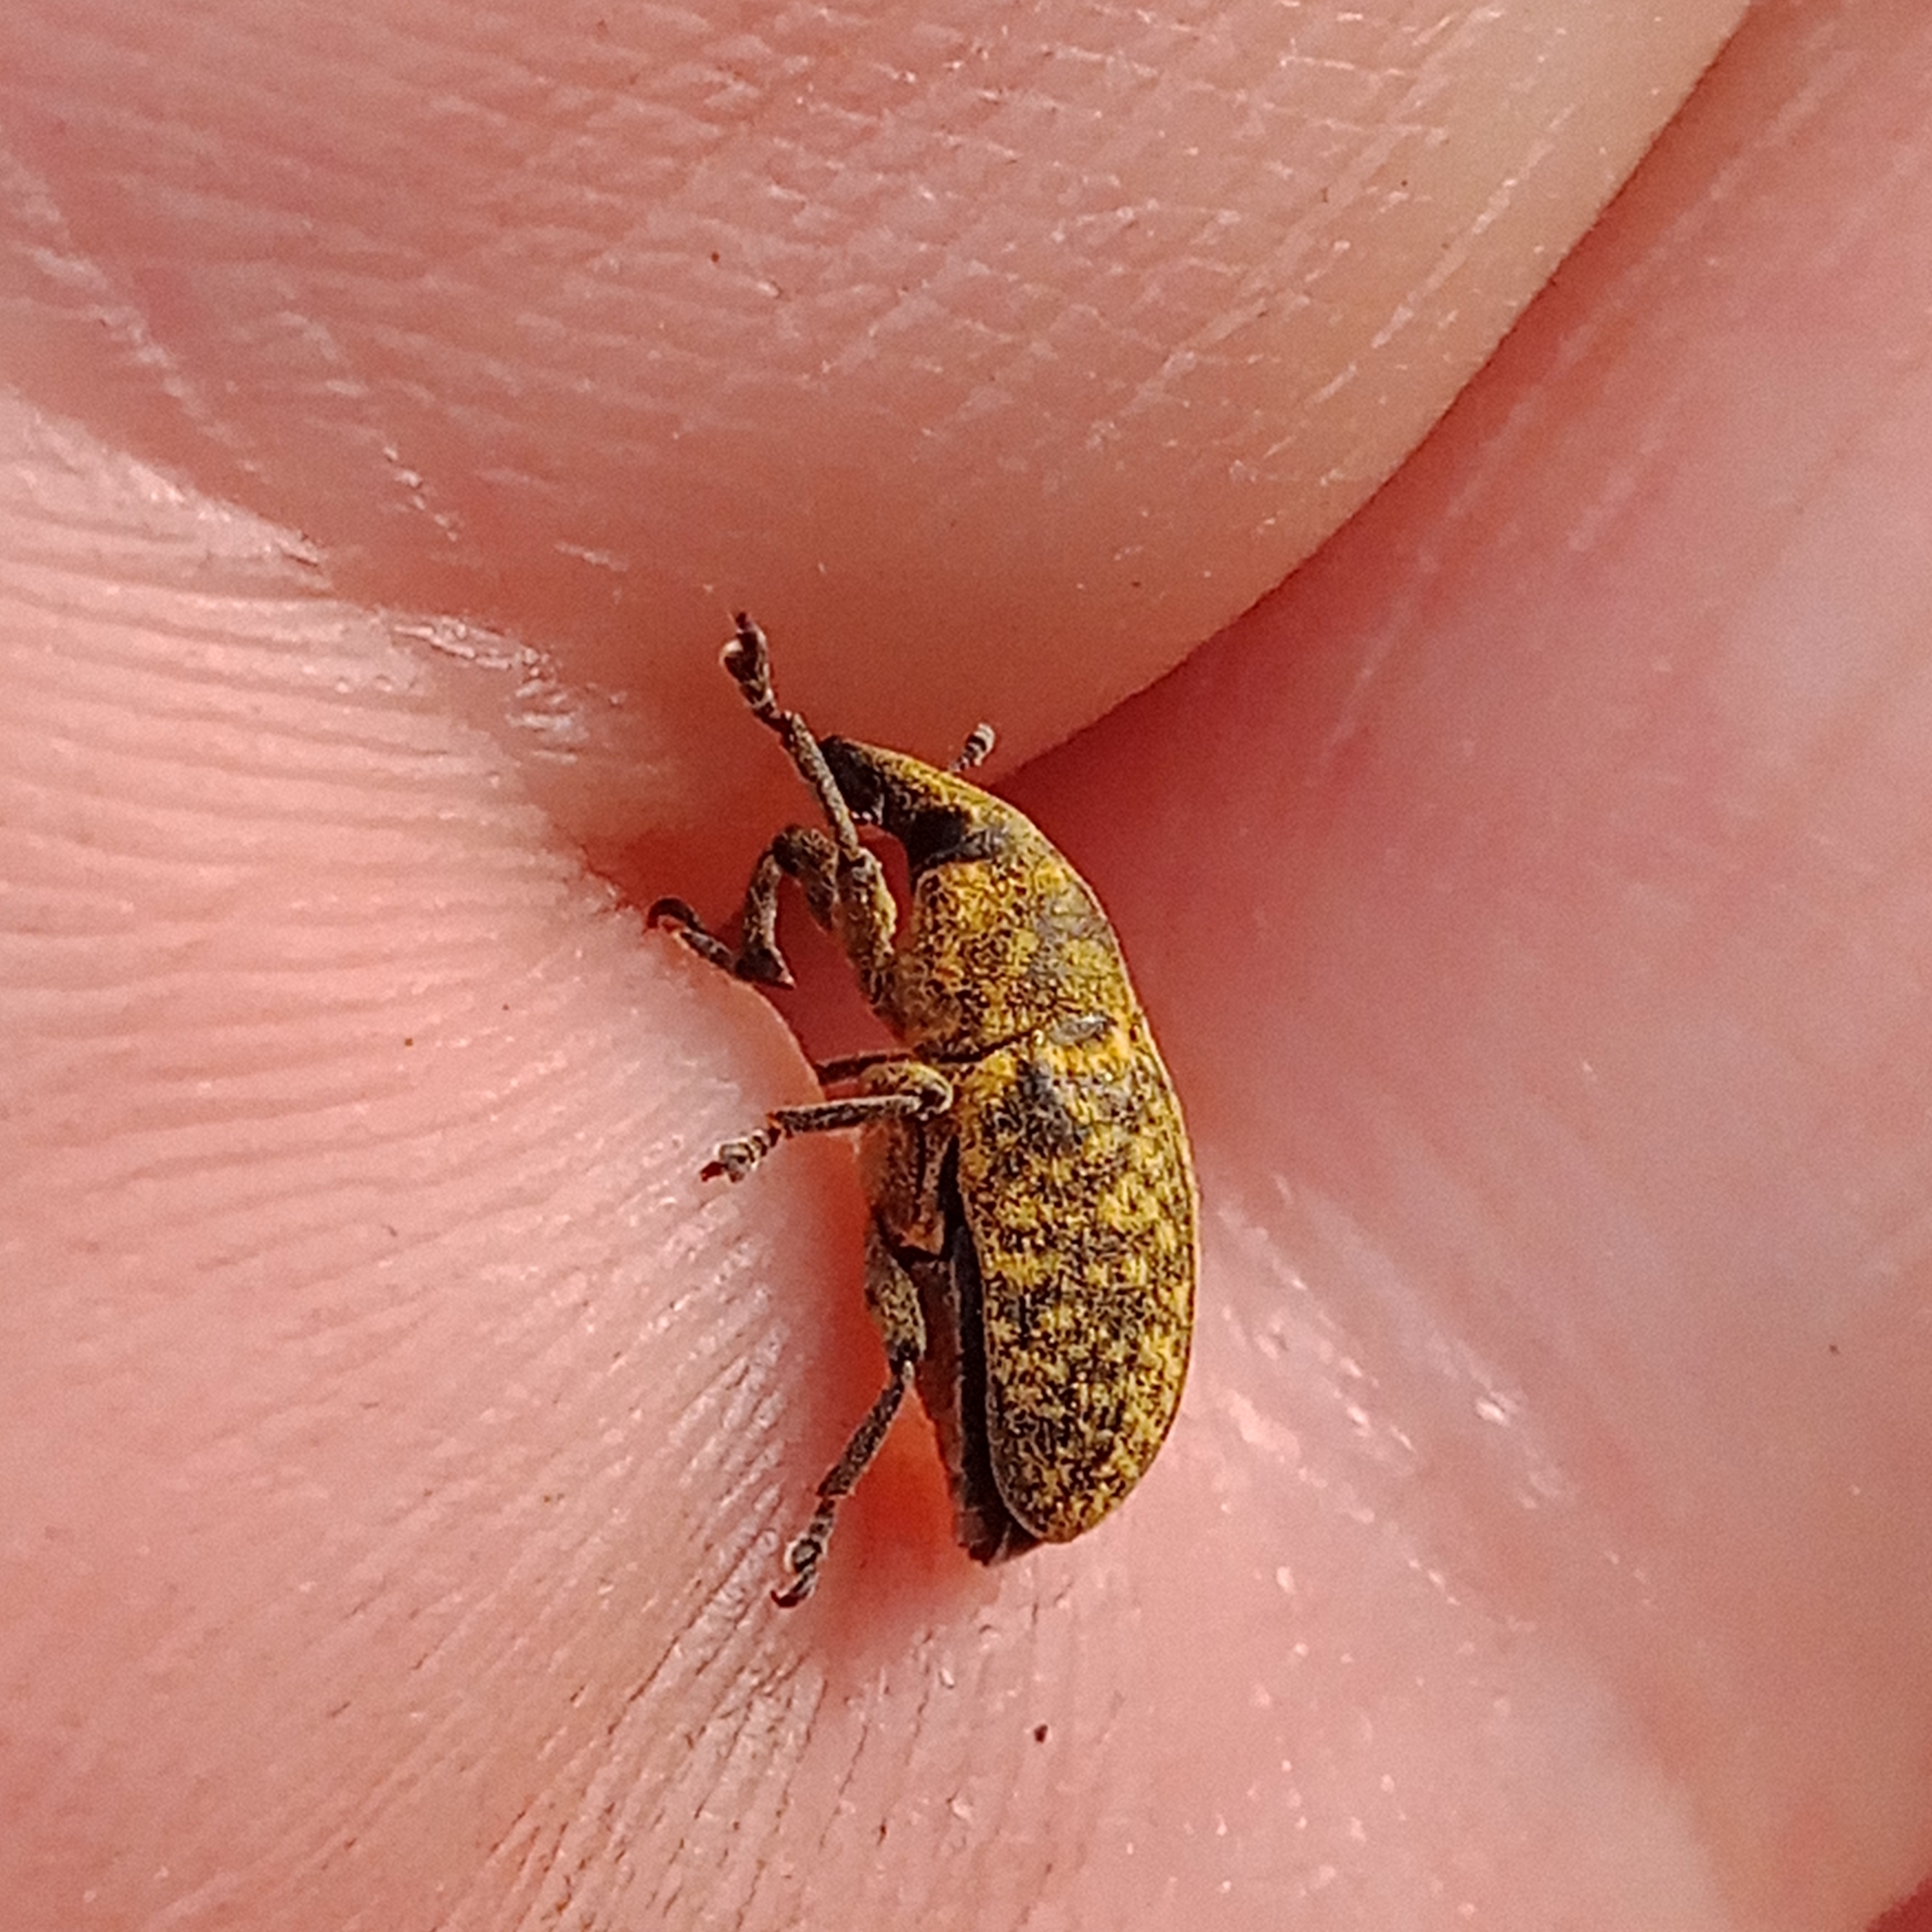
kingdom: Animalia
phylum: Arthropoda
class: Insecta
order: Coleoptera
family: Curculionidae
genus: Larinus
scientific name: Larinus turbinatus
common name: Weevil
